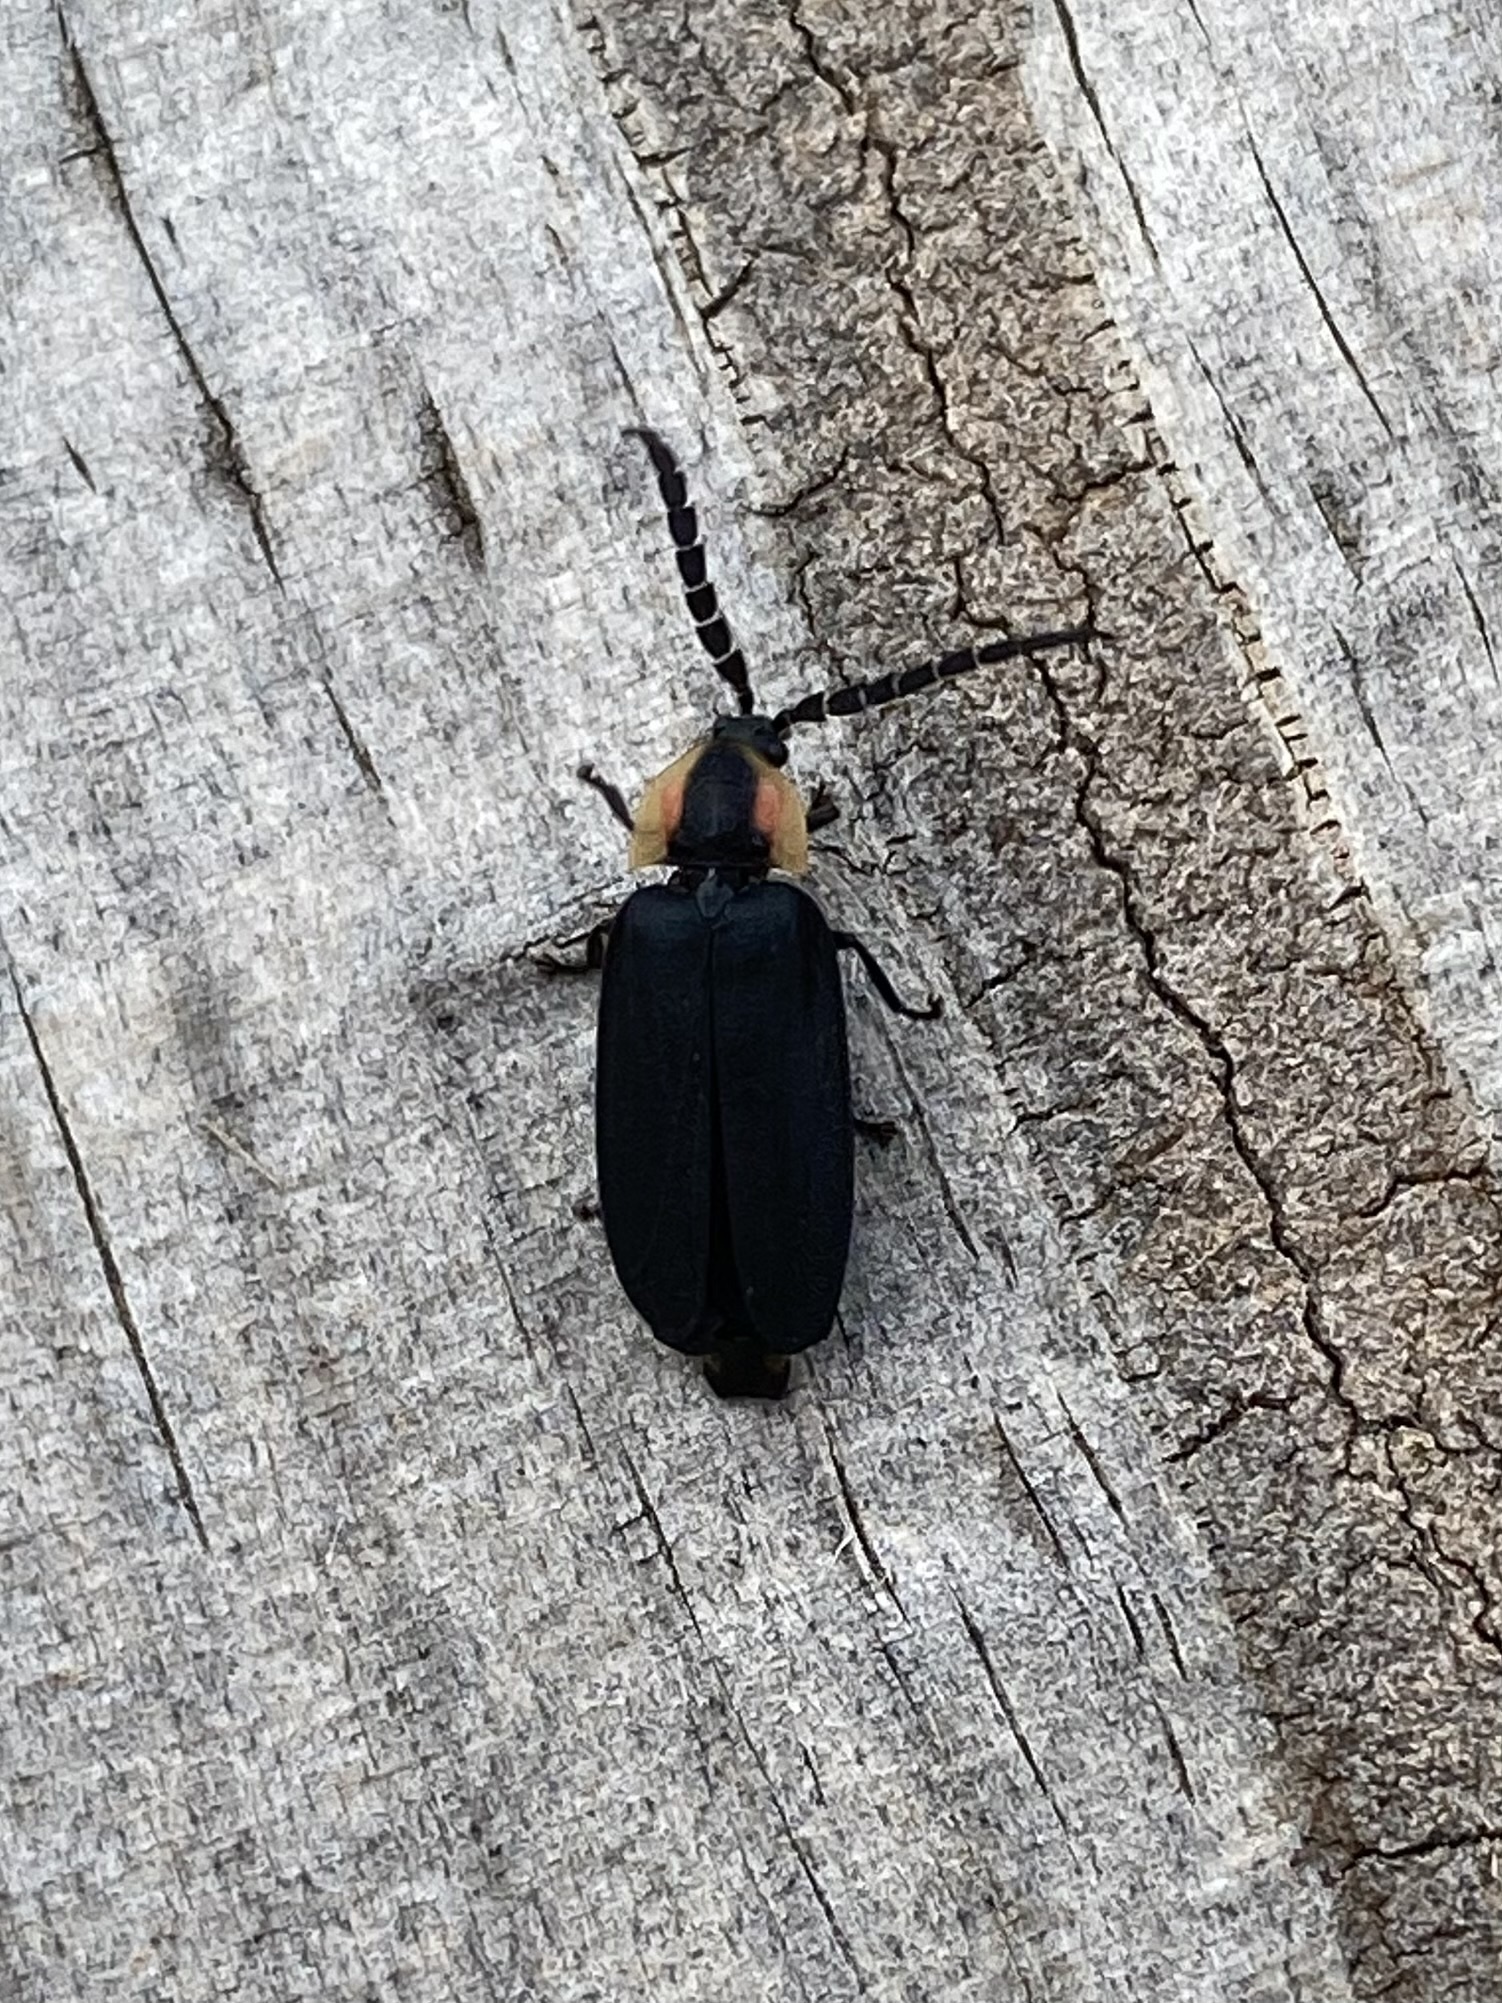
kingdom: Animalia
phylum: Arthropoda
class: Insecta
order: Coleoptera
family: Lampyridae
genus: Lucidota
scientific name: Lucidota atra
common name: Black firefly
